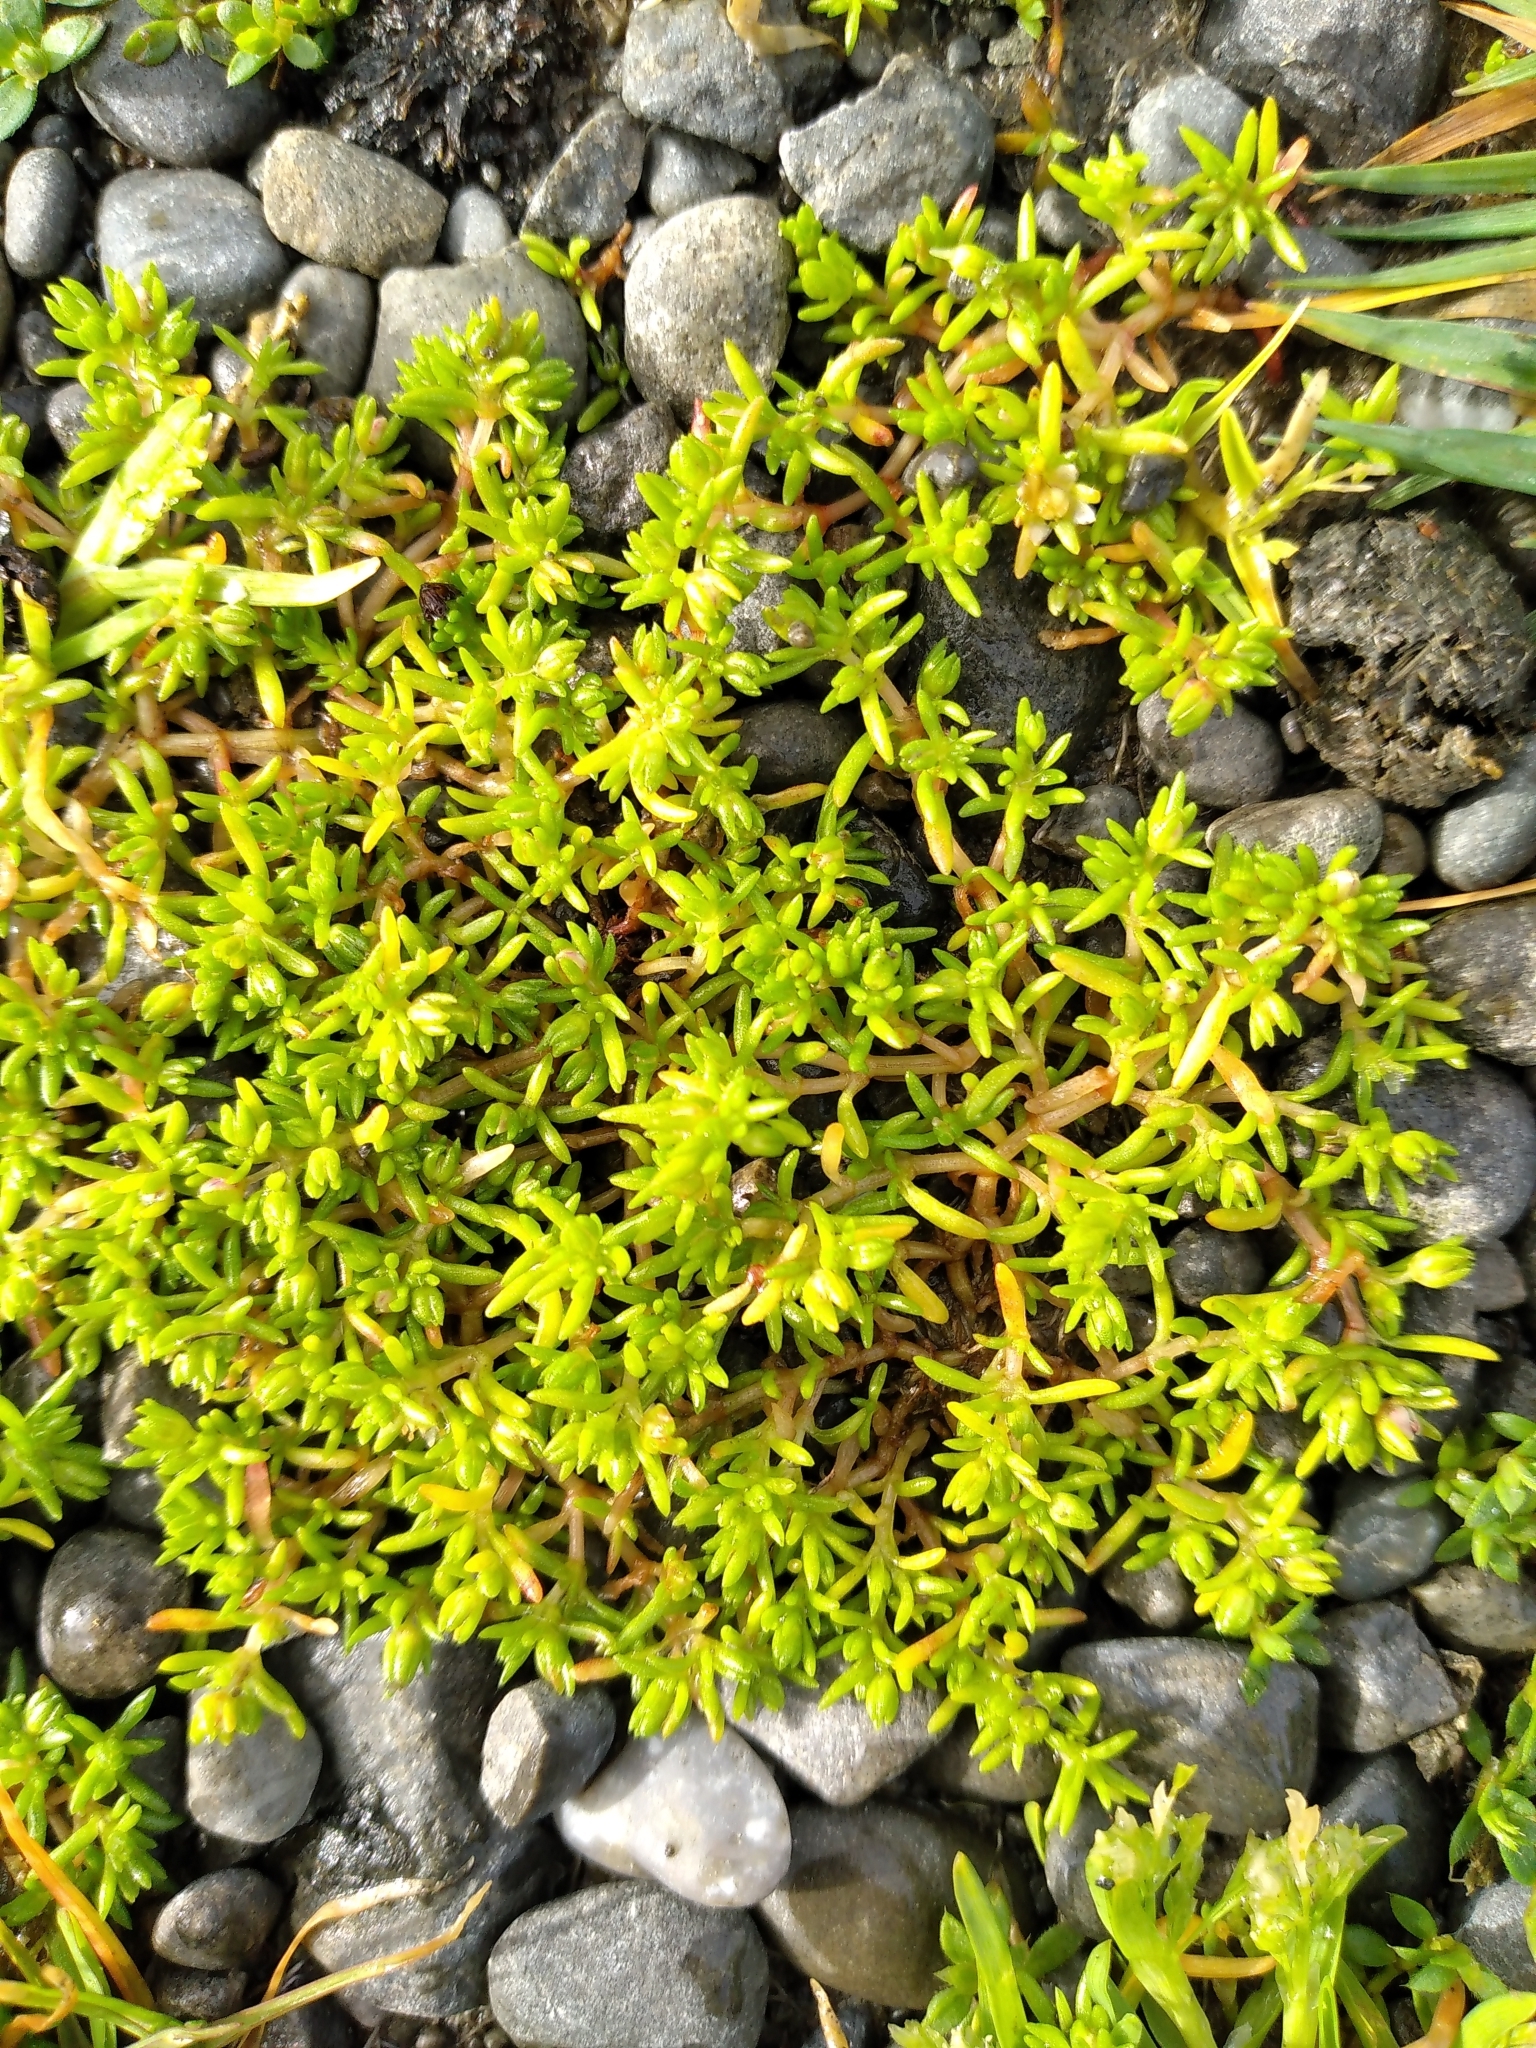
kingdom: Plantae
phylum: Tracheophyta
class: Magnoliopsida
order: Saxifragales
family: Crassulaceae
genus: Crassula
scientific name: Crassula decumbens
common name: Scilly pigmyweed
